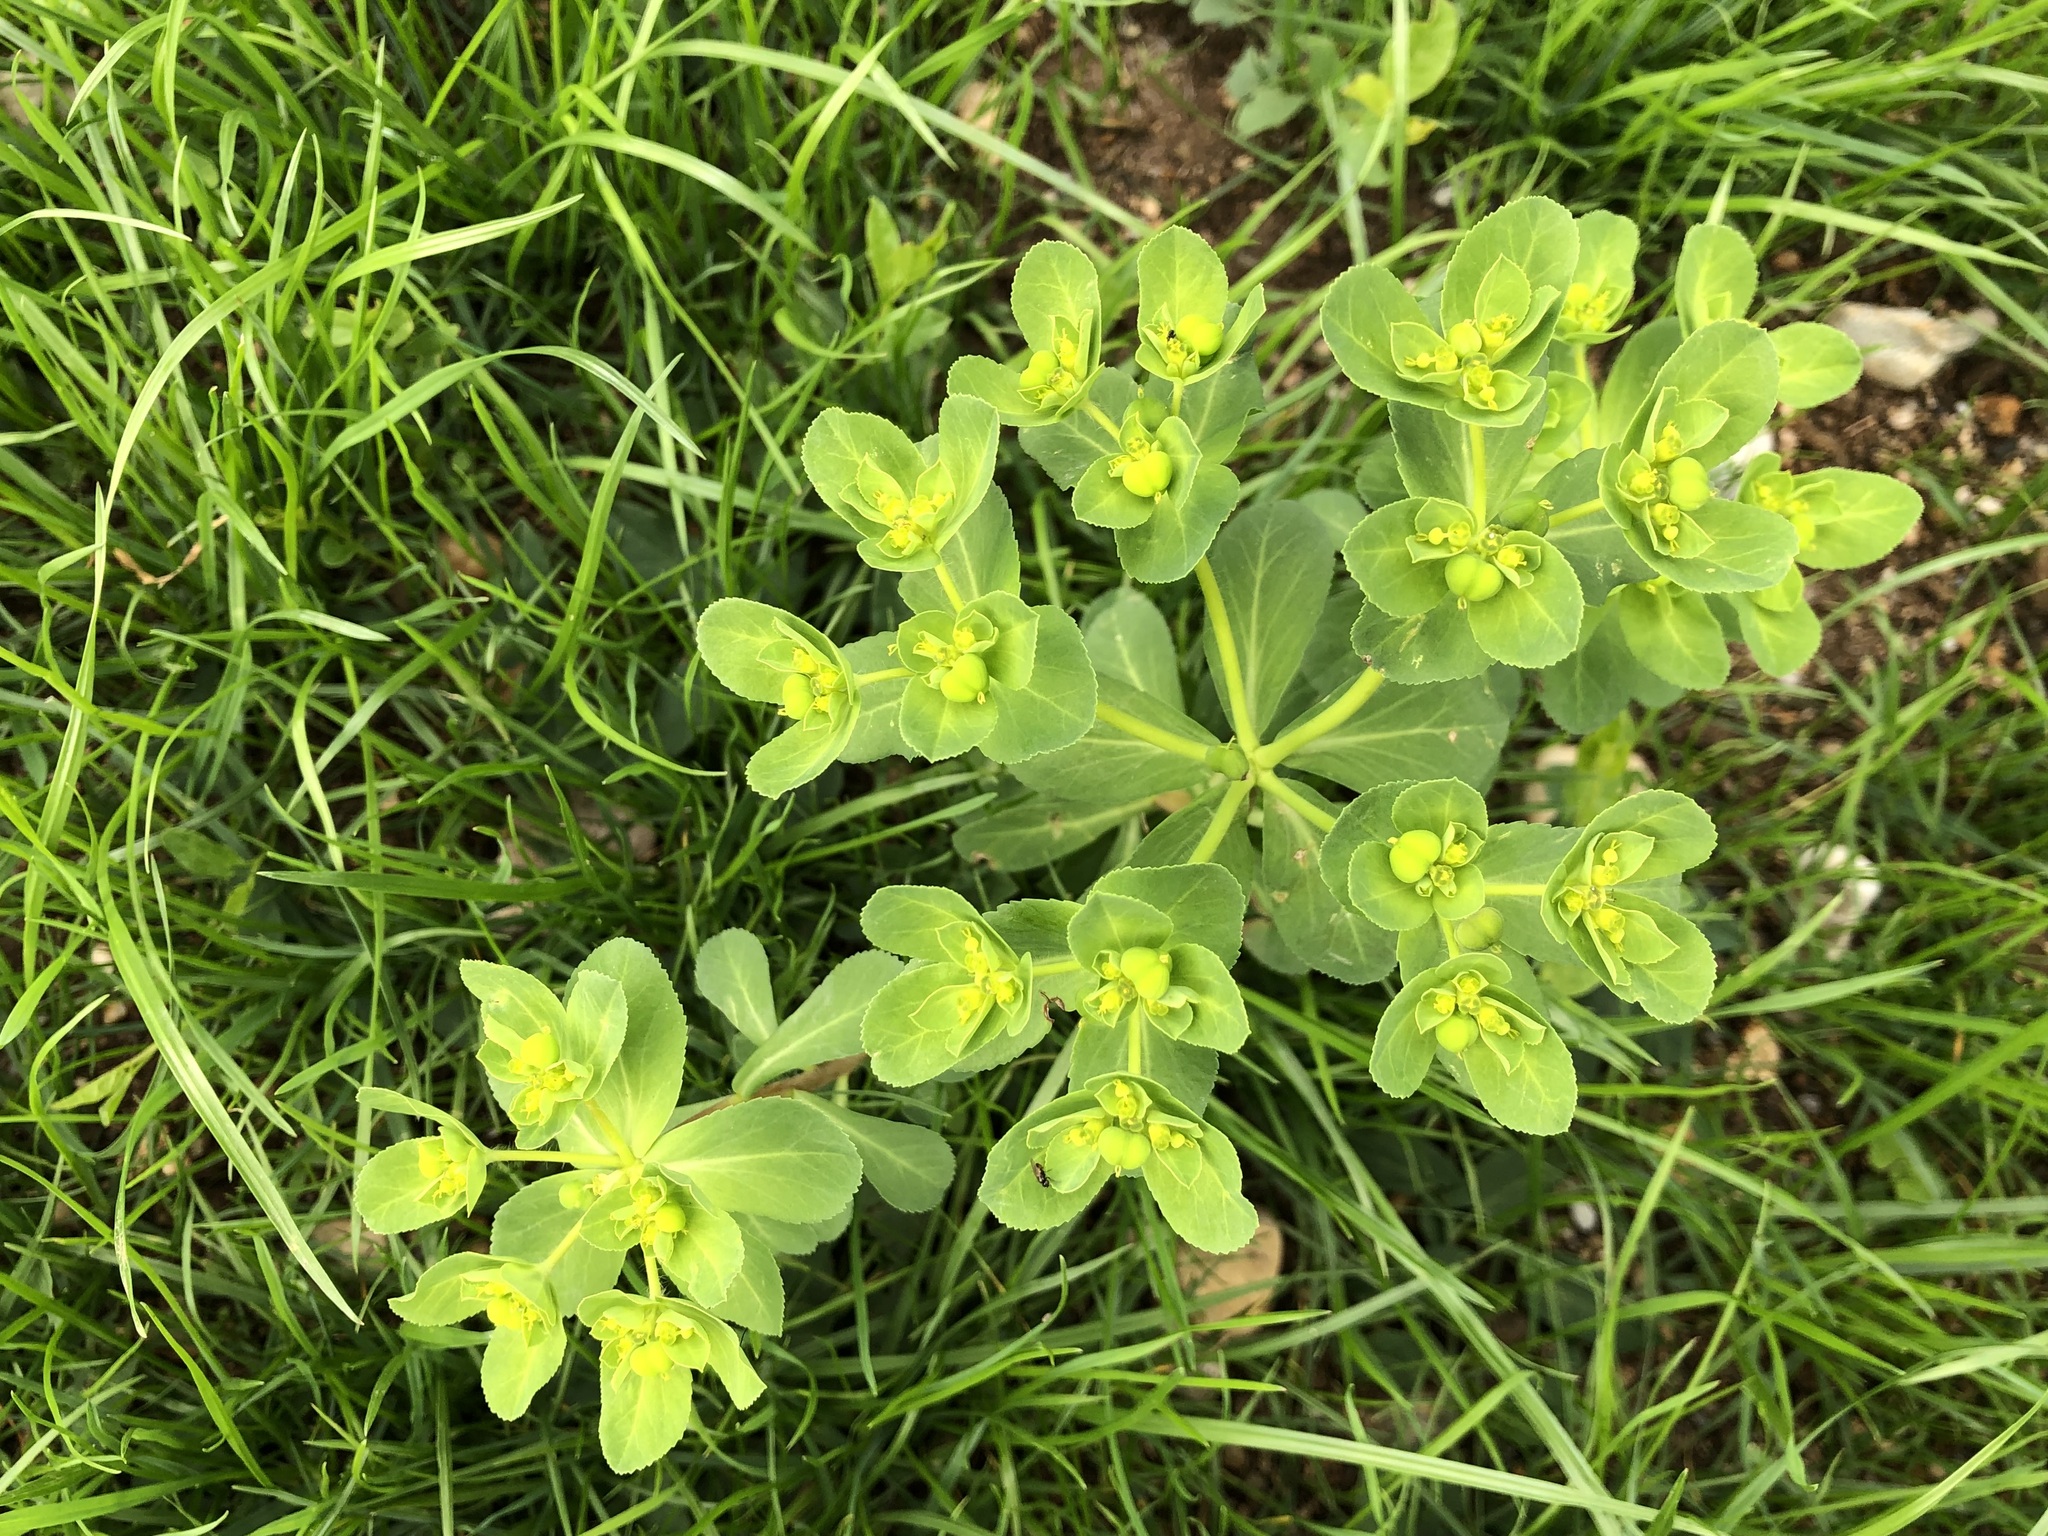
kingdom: Plantae
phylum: Tracheophyta
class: Magnoliopsida
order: Malpighiales
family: Euphorbiaceae
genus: Euphorbia
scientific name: Euphorbia helioscopia
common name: Sun spurge
